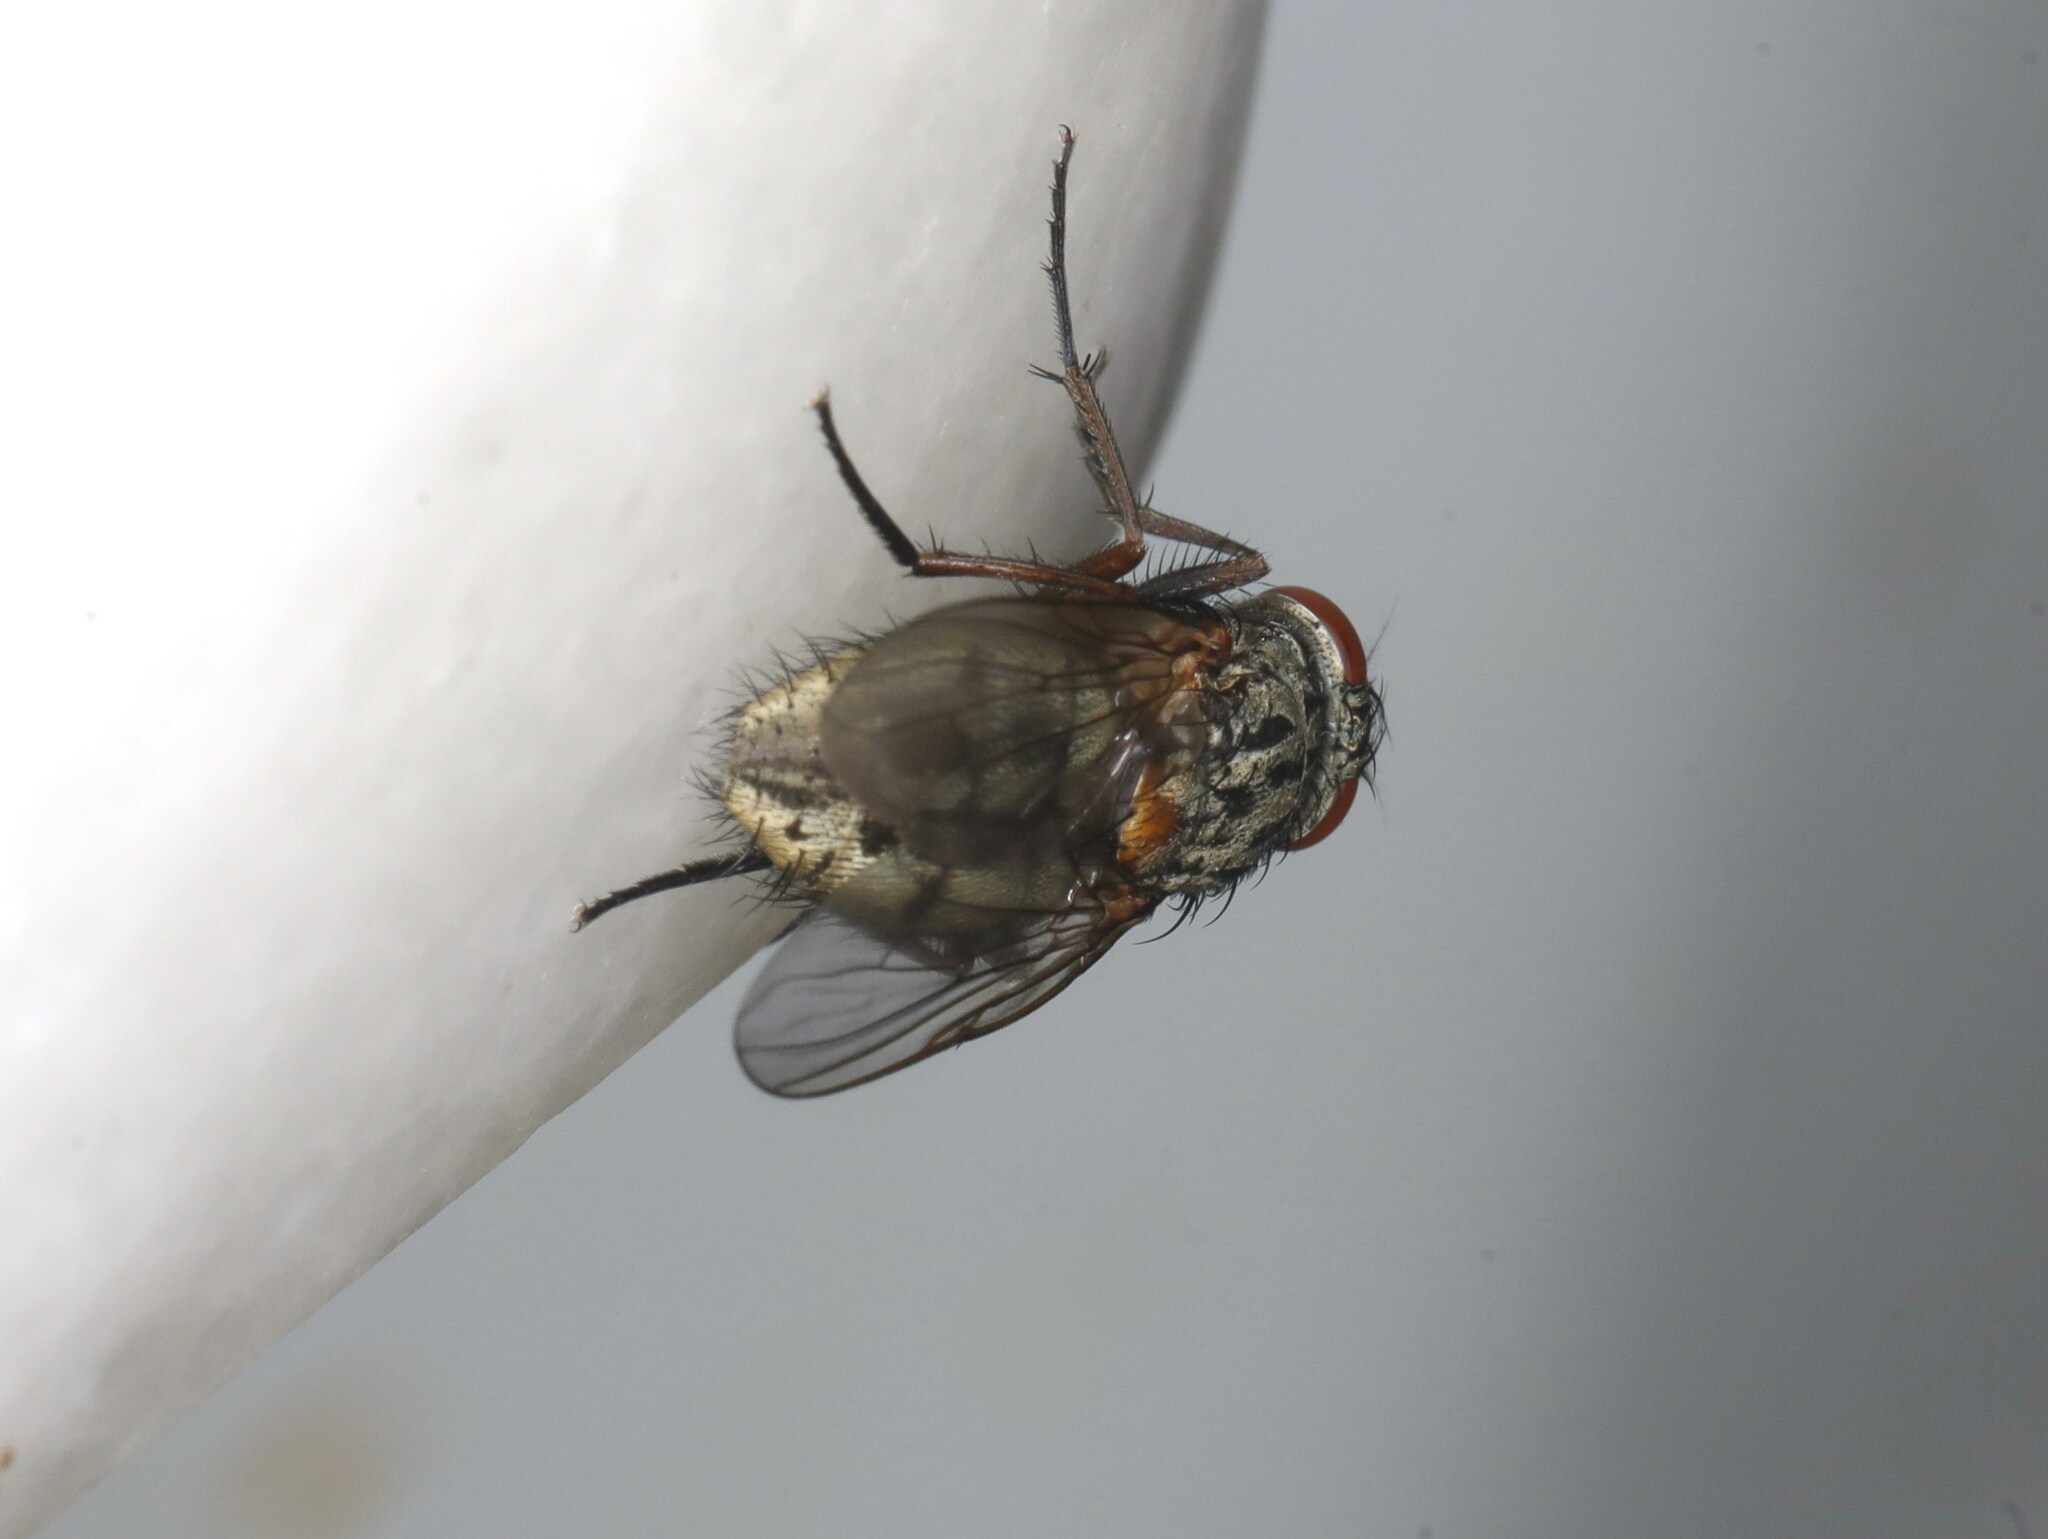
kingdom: Animalia
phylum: Arthropoda
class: Insecta
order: Diptera
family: Muscidae
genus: Muscina
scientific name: Muscina stabulans
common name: False stable fly
